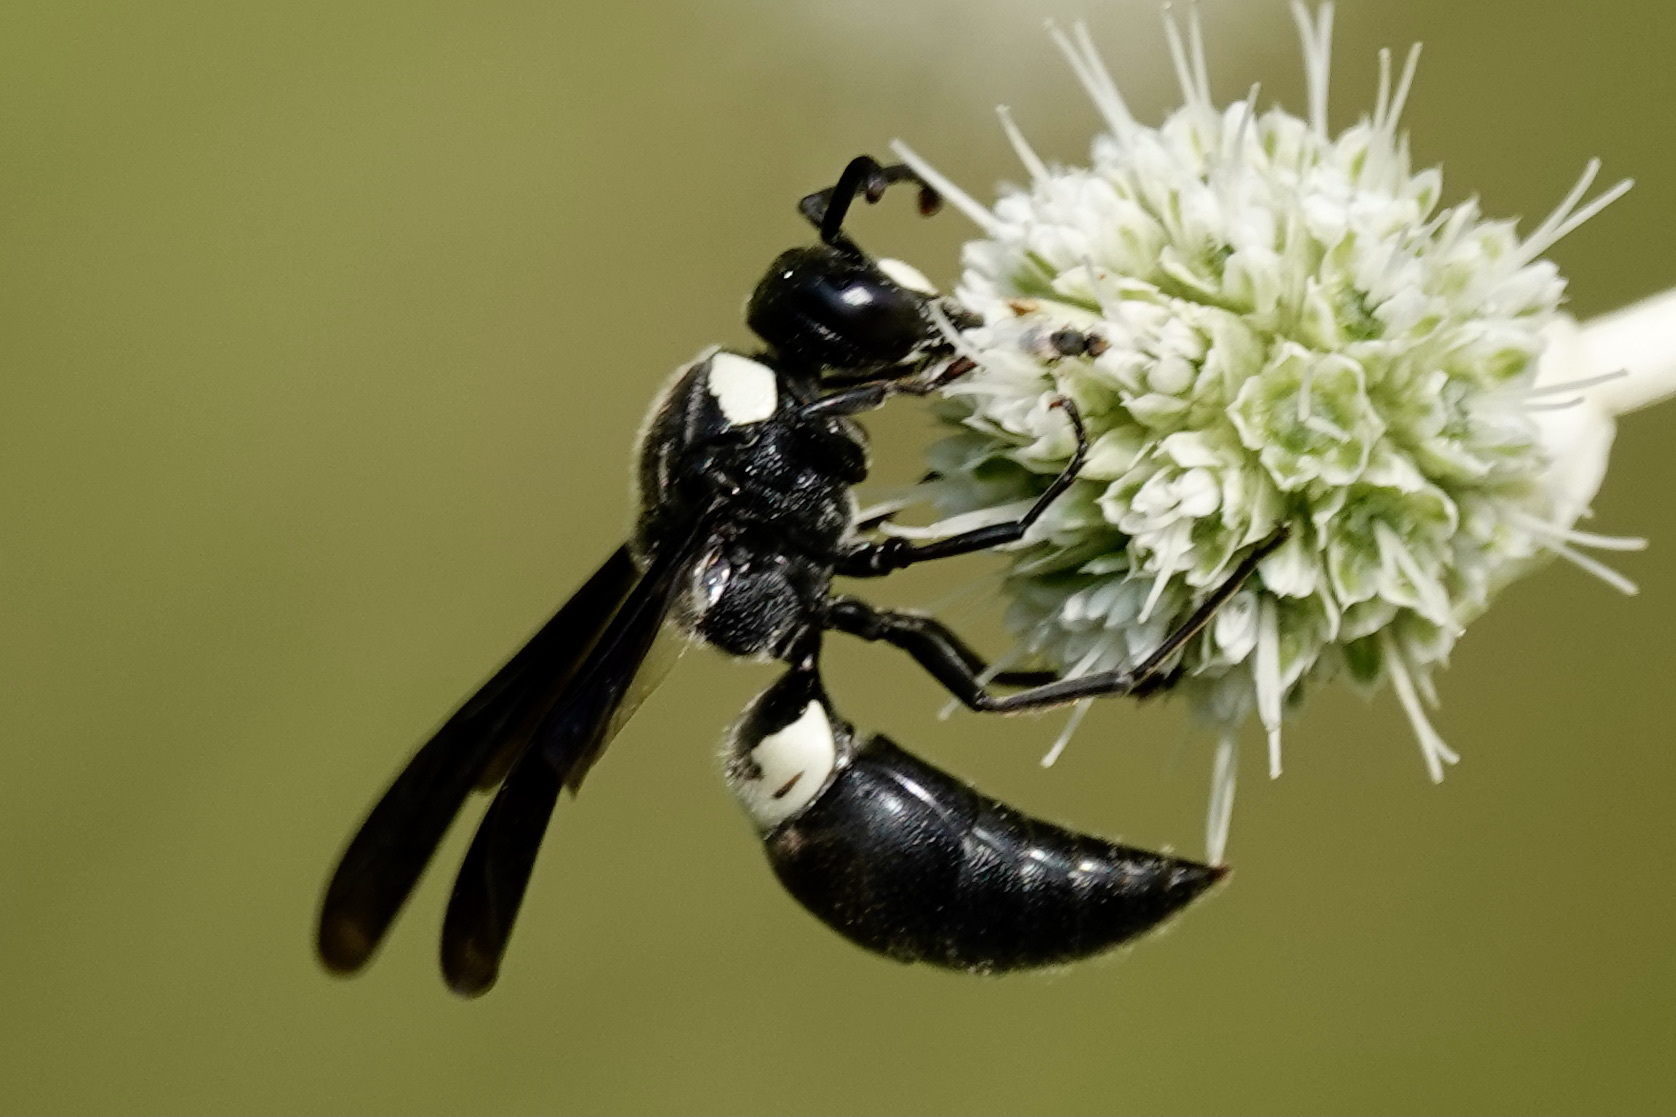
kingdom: Animalia
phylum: Arthropoda
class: Insecta
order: Hymenoptera
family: Eumenidae
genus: Monobia
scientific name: Monobia quadridens
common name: Four-toothed mason wasp
